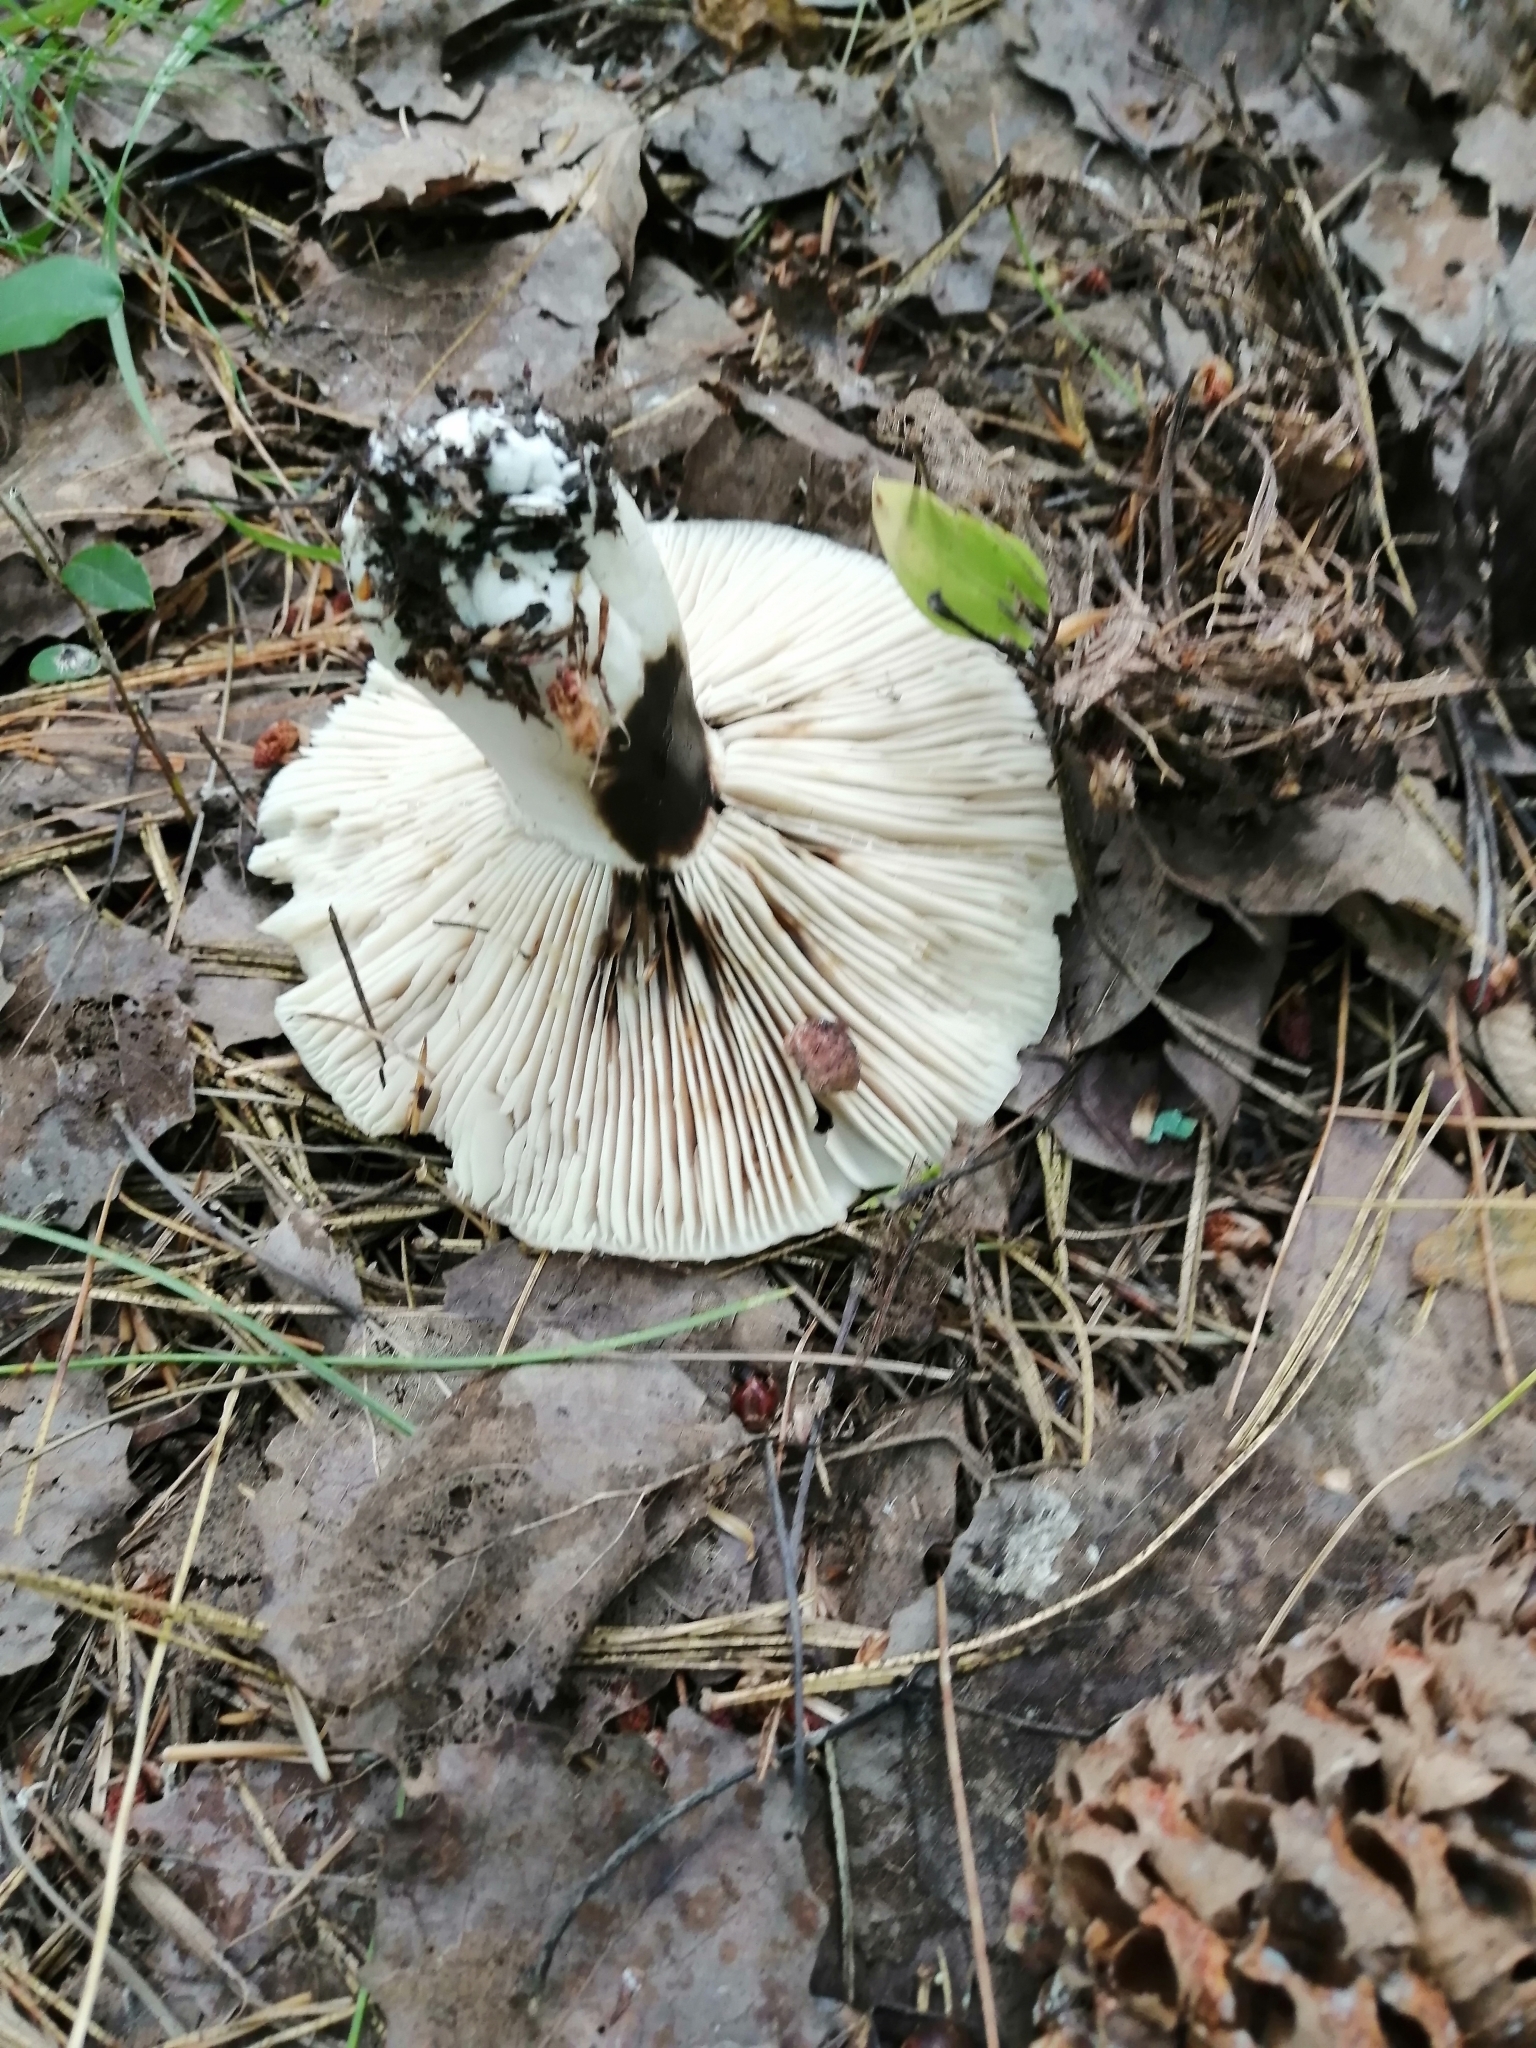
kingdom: Fungi
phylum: Basidiomycota
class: Agaricomycetes
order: Russulales
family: Russulaceae
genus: Russula
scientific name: Russula albonigra
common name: Menthol brittlegill
